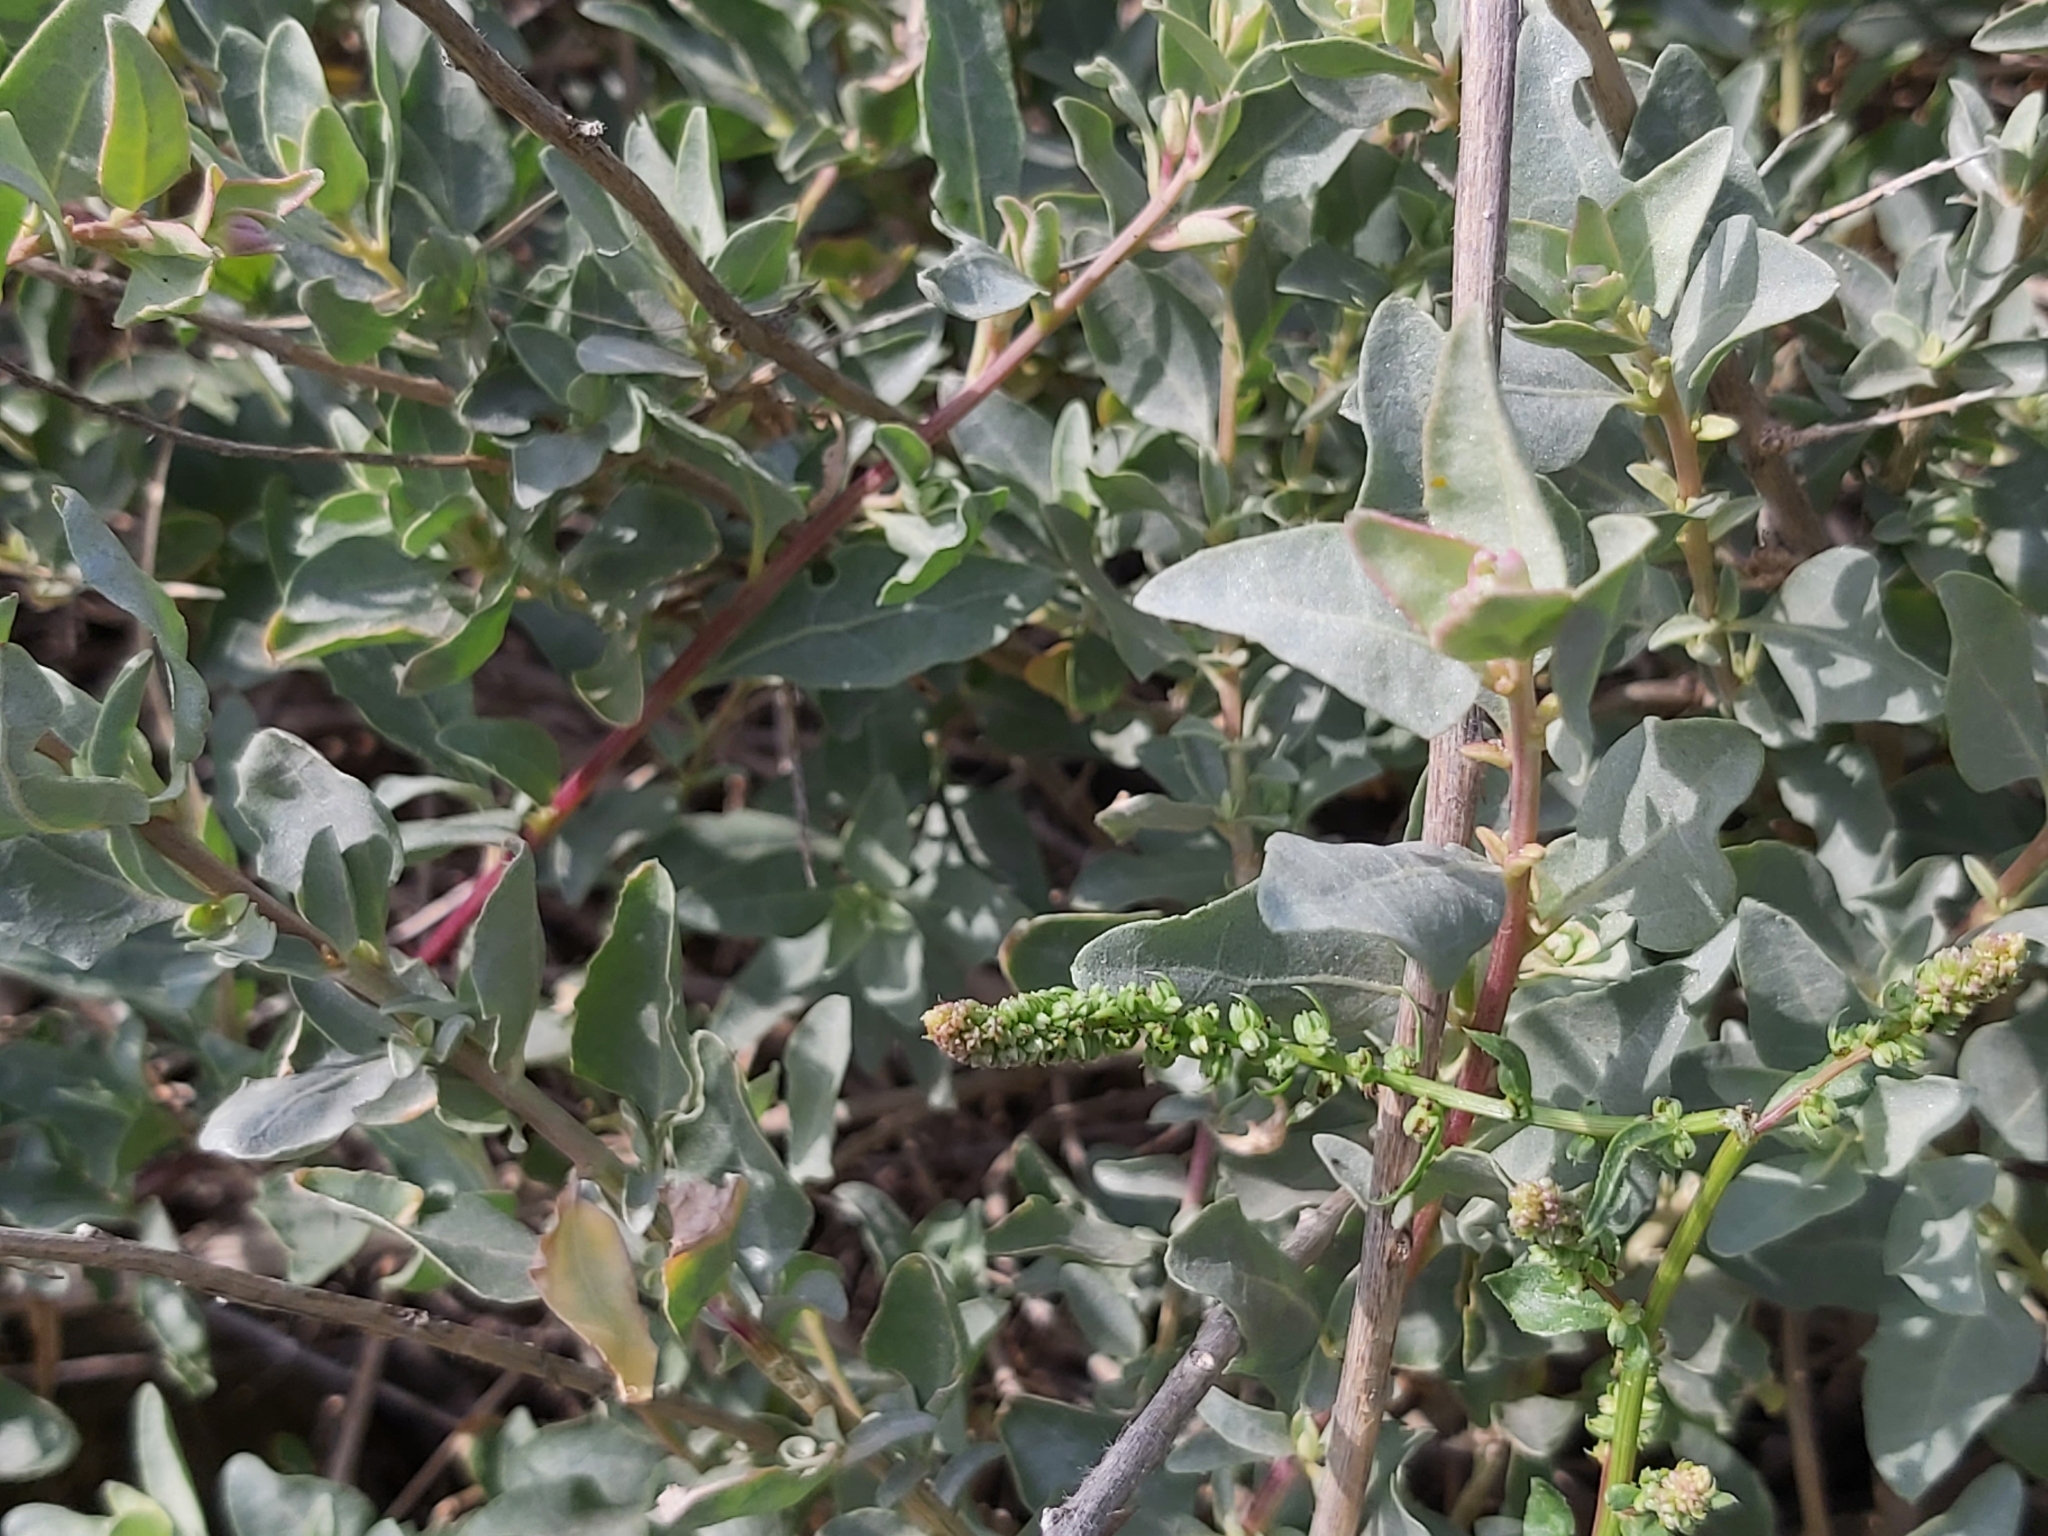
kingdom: Plantae
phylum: Tracheophyta
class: Magnoliopsida
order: Caryophyllales
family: Amaranthaceae
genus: Atriplex
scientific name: Atriplex halimus
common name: Shrubby orache
